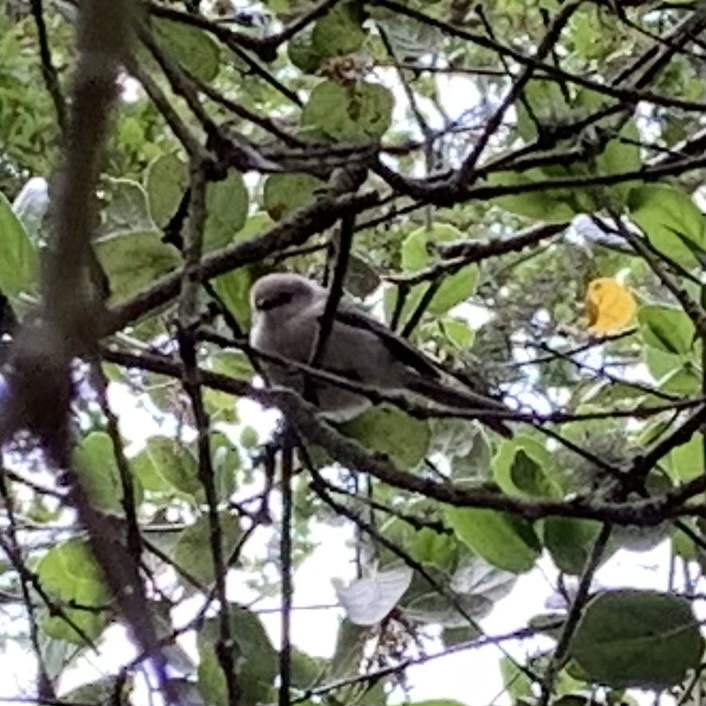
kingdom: Animalia
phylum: Chordata
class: Aves
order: Passeriformes
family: Aegithalidae
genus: Psaltriparus
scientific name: Psaltriparus minimus
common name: American bushtit
